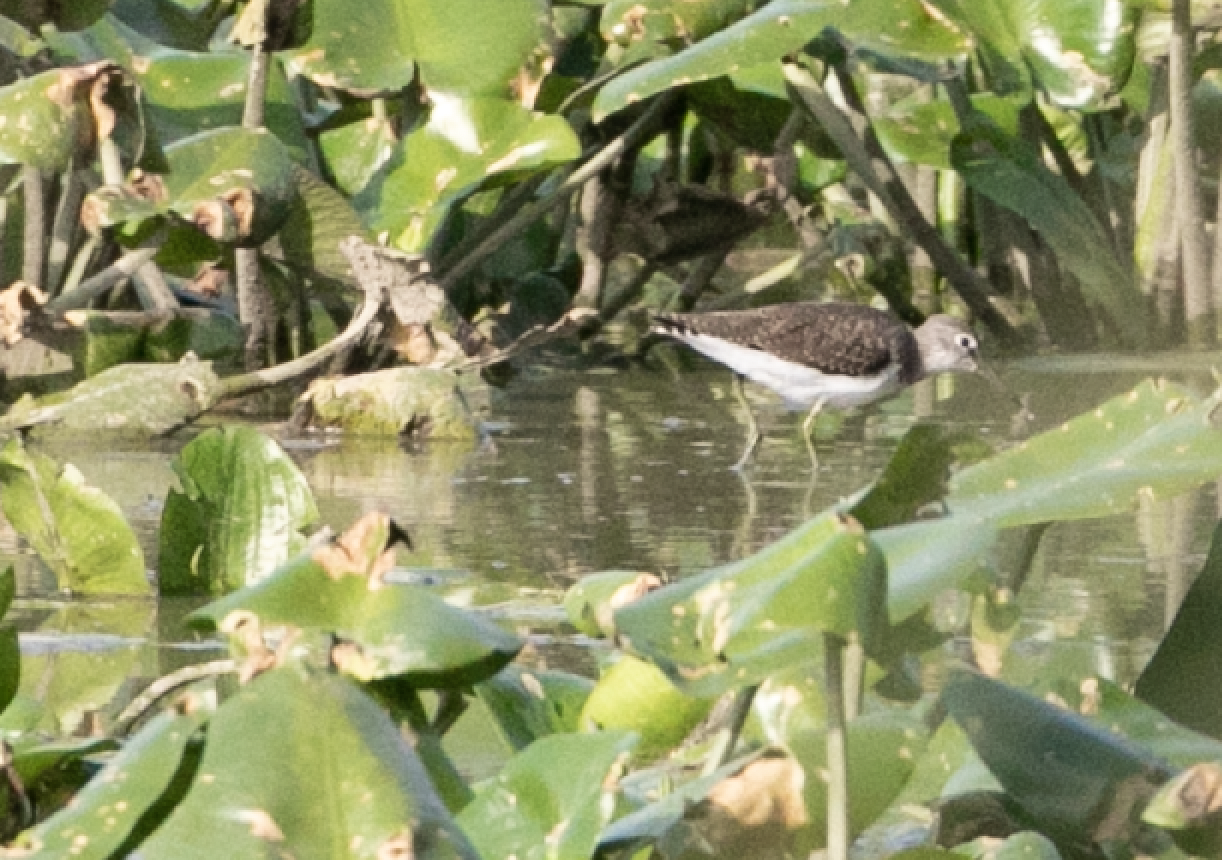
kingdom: Animalia
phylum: Chordata
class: Aves
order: Charadriiformes
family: Scolopacidae
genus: Tringa
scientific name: Tringa ochropus
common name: Green sandpiper
